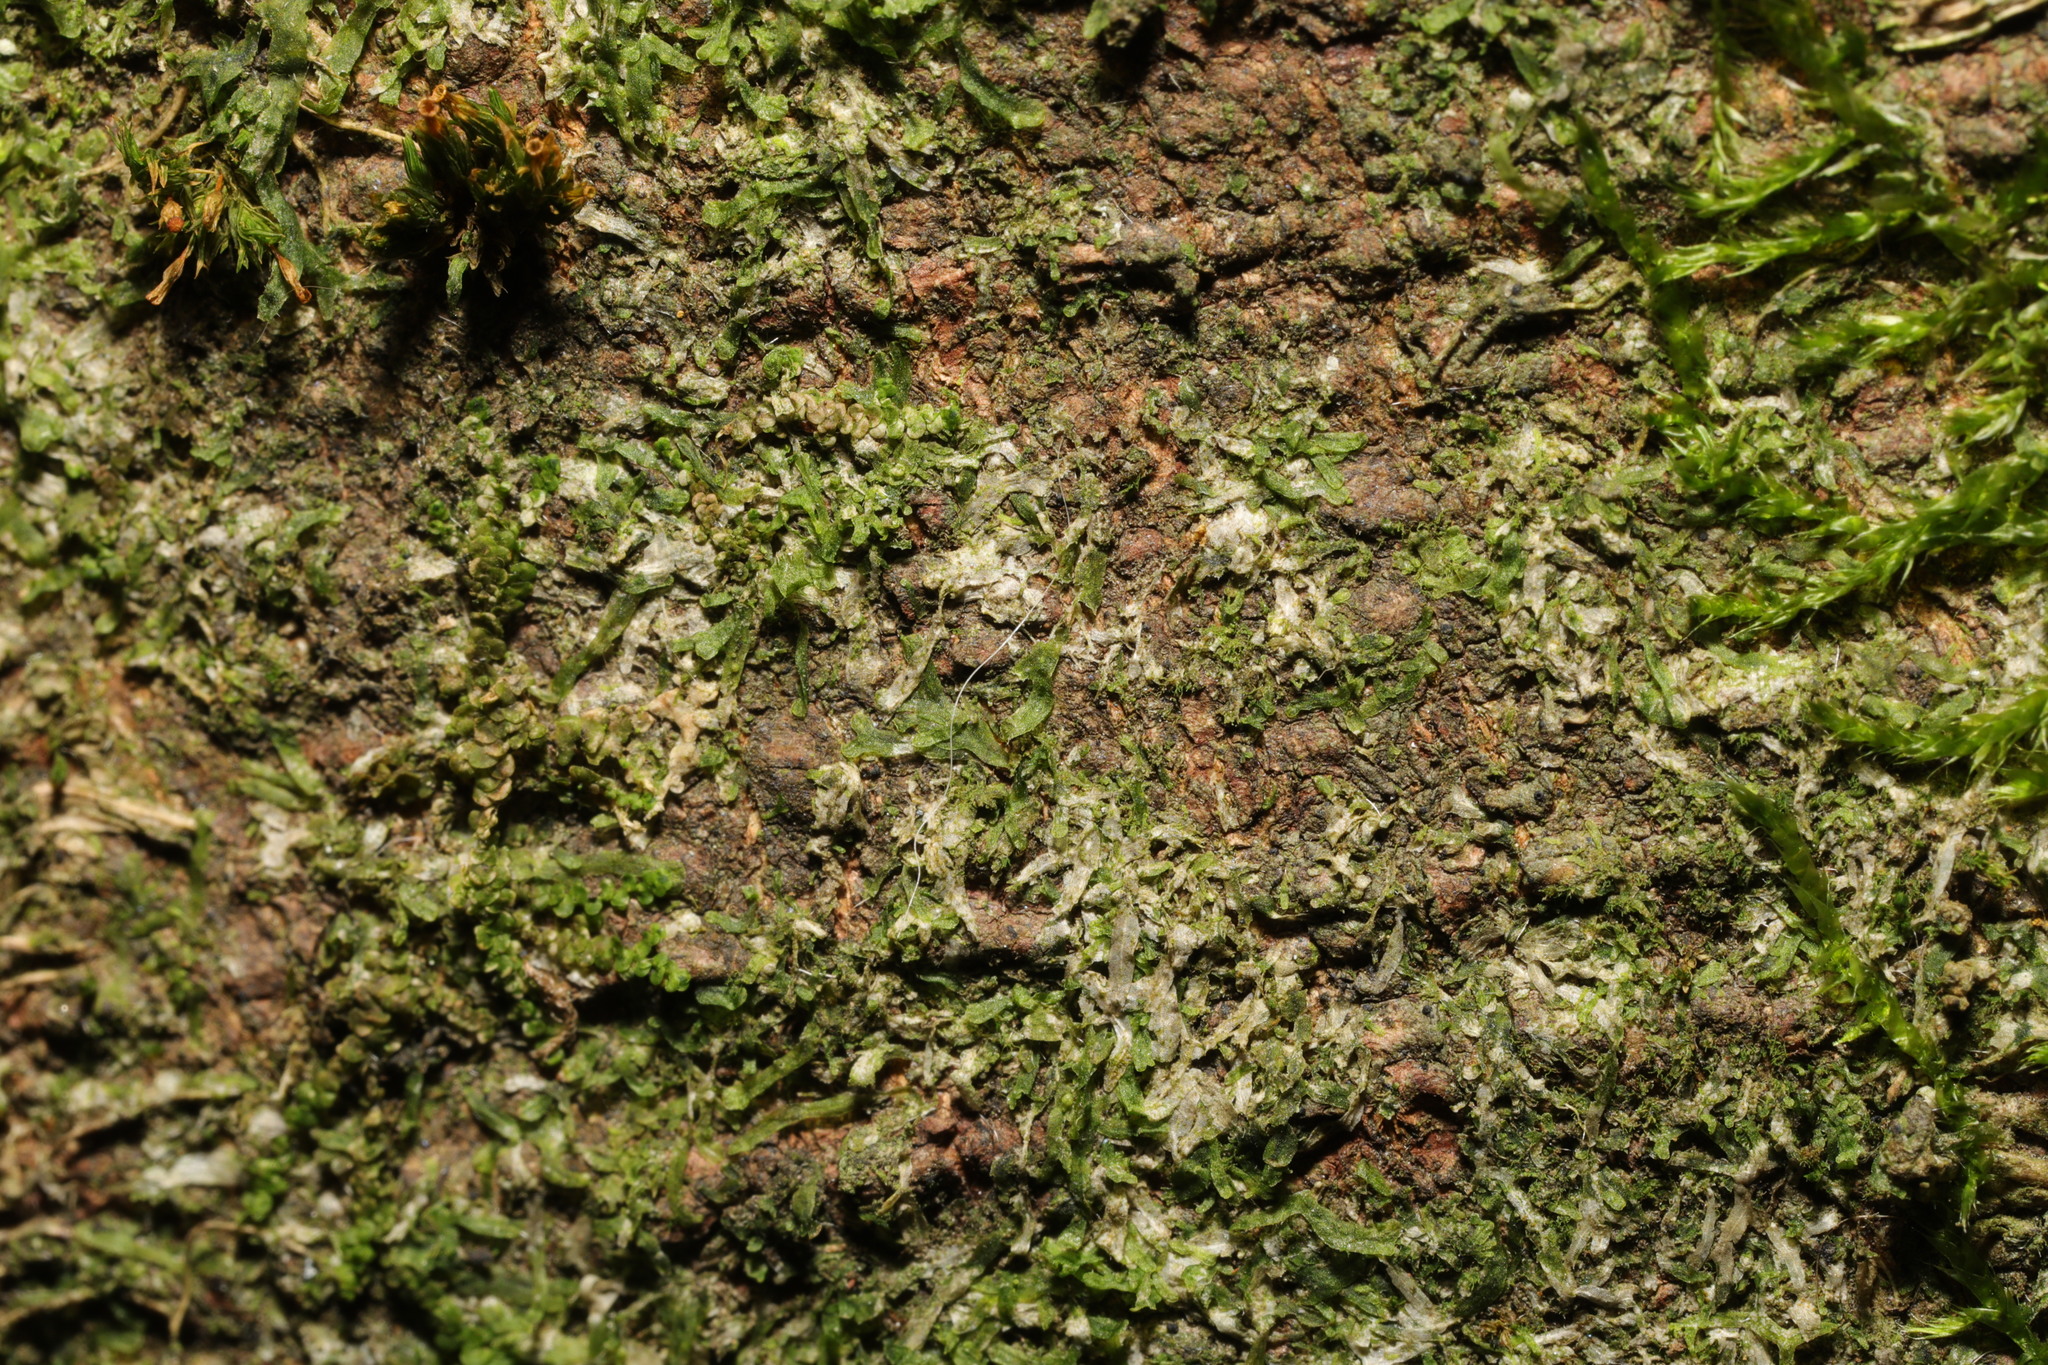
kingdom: Plantae
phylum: Marchantiophyta
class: Jungermanniopsida
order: Metzgeriales
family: Metzgeriaceae
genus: Metzgeria
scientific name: Metzgeria furcata
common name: Forked veilwort
